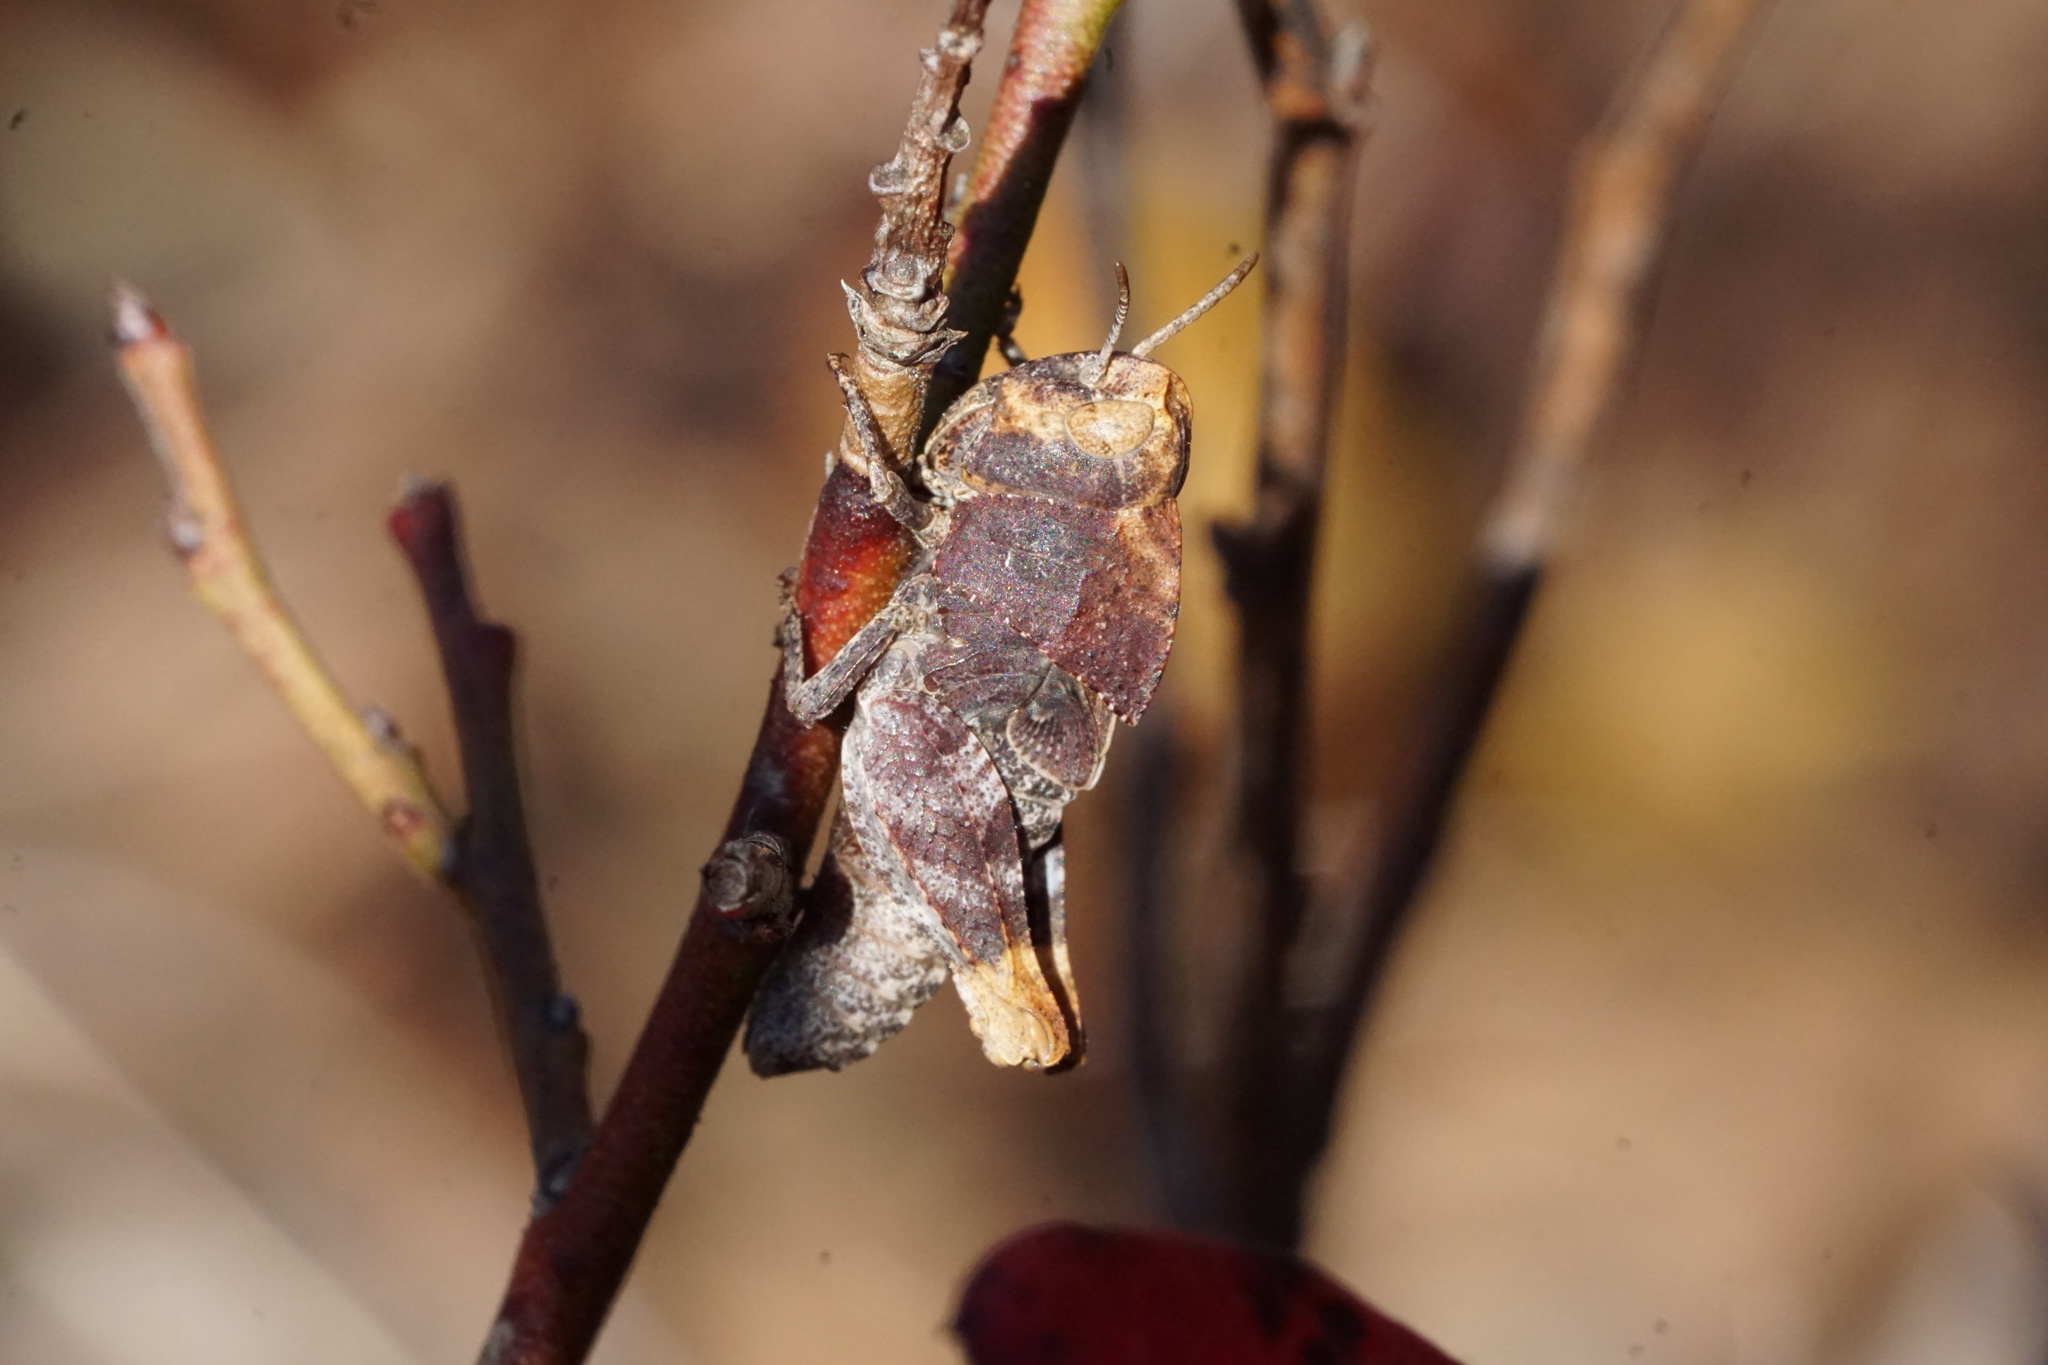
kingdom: Animalia
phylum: Arthropoda
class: Insecta
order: Orthoptera
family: Acrididae
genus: Arphia
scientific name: Arphia sulphurea
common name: Spring yellow-winged locust
